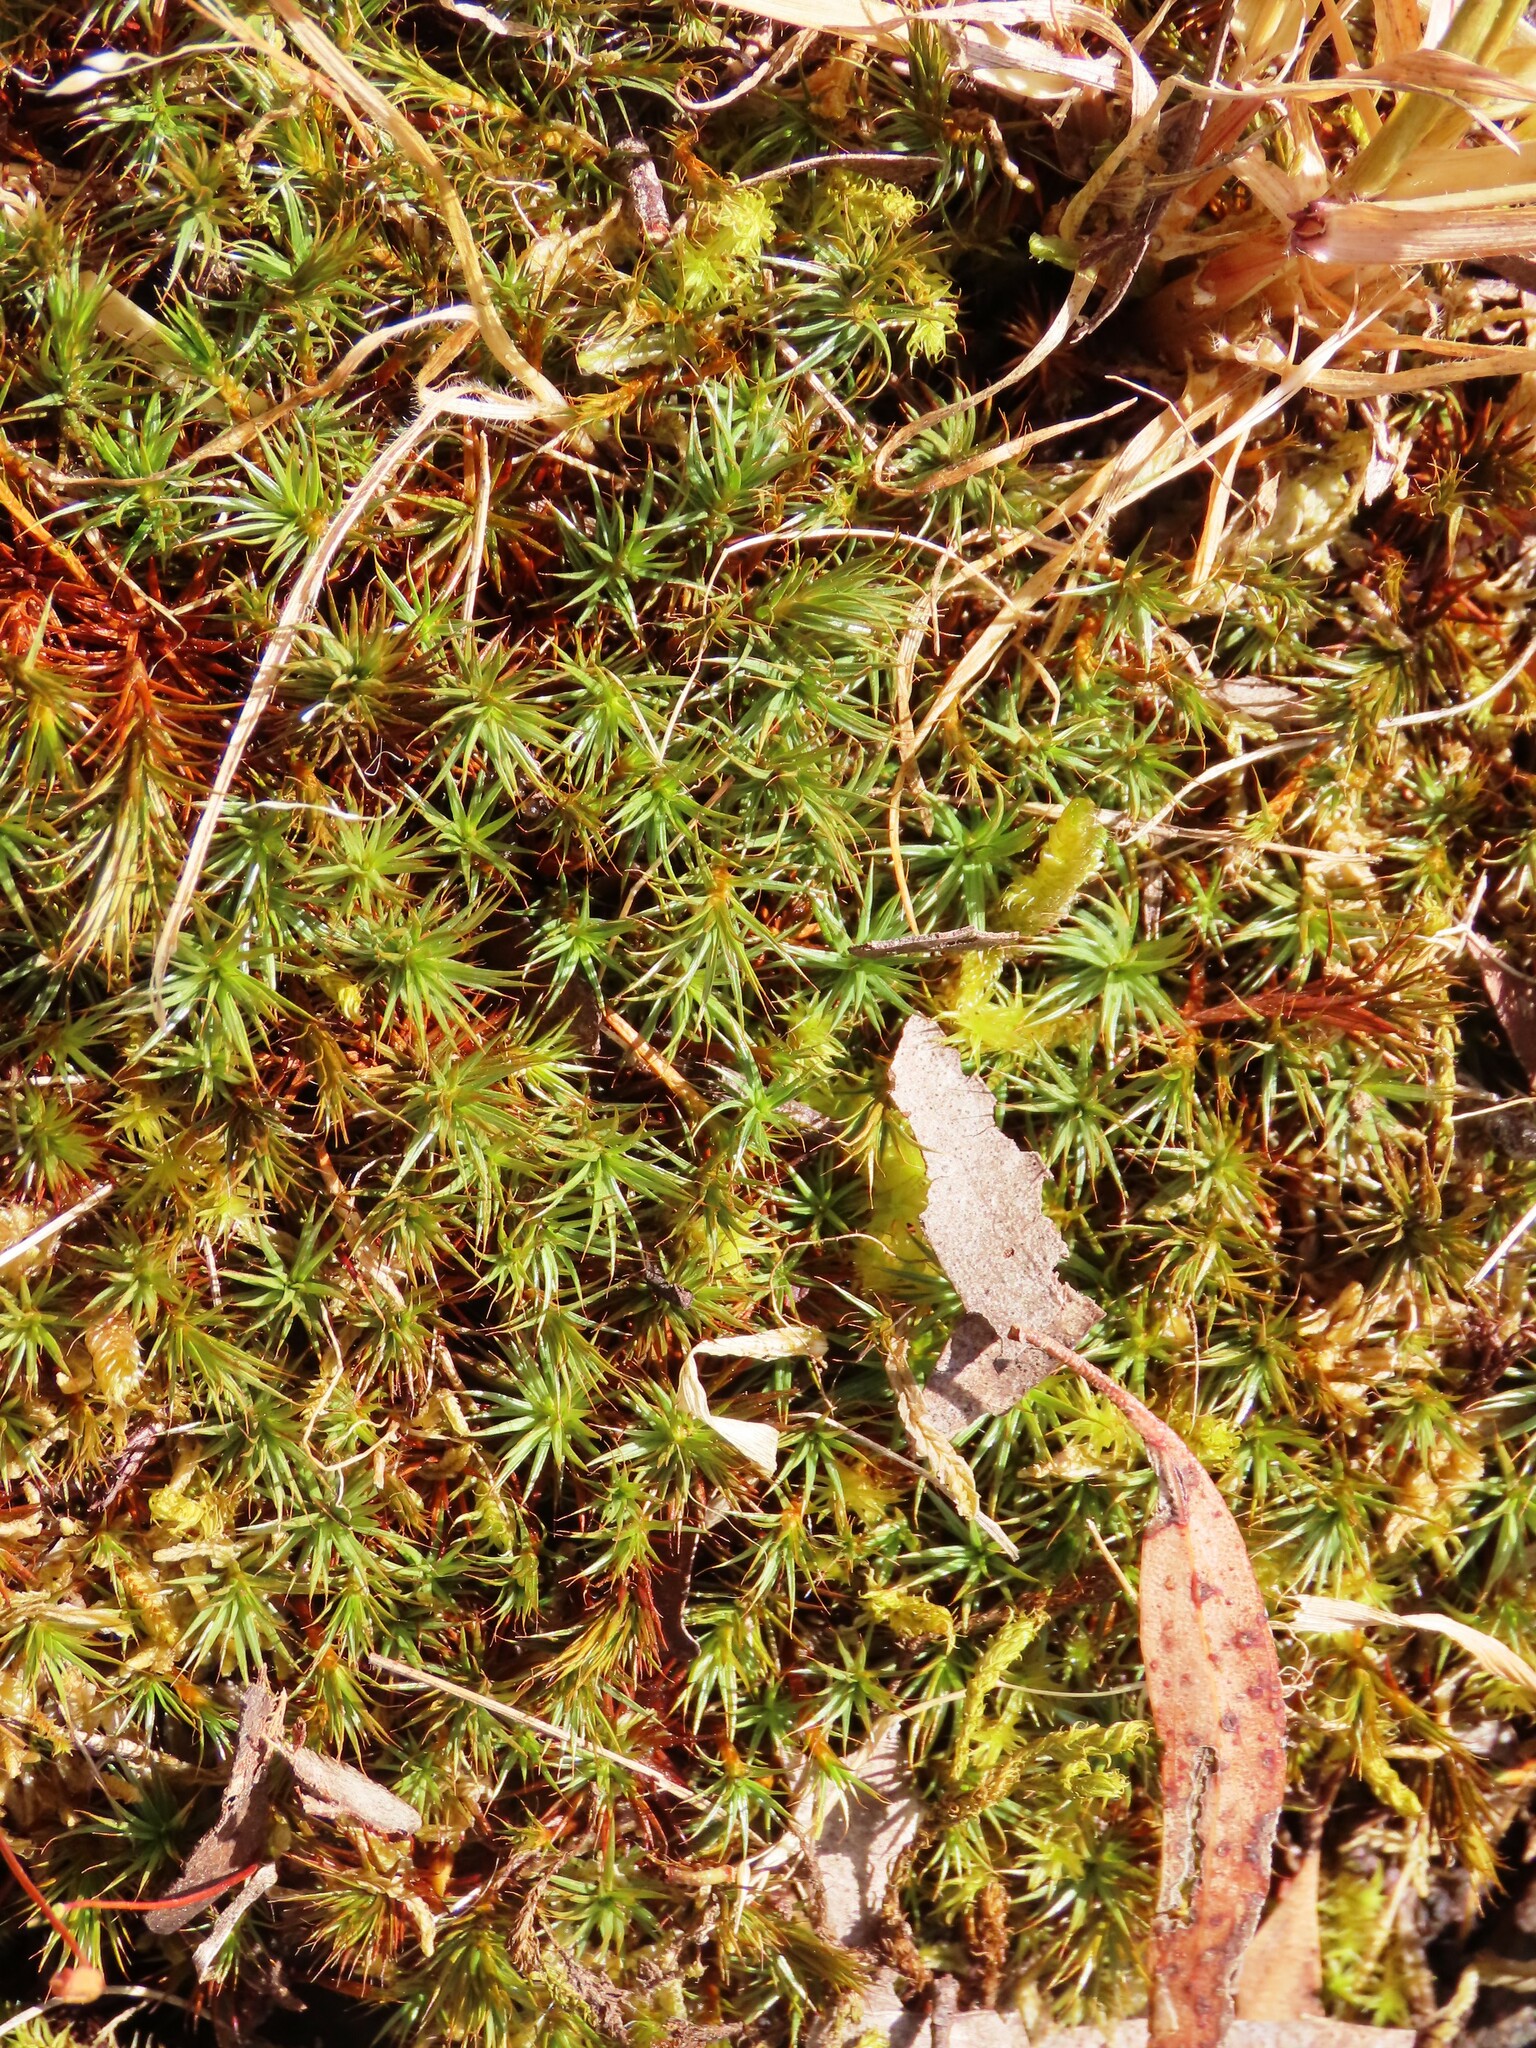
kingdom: Plantae
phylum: Bryophyta
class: Polytrichopsida
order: Polytrichales
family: Polytrichaceae
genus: Polytrichum
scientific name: Polytrichum juniperinum
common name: Juniper haircap moss
